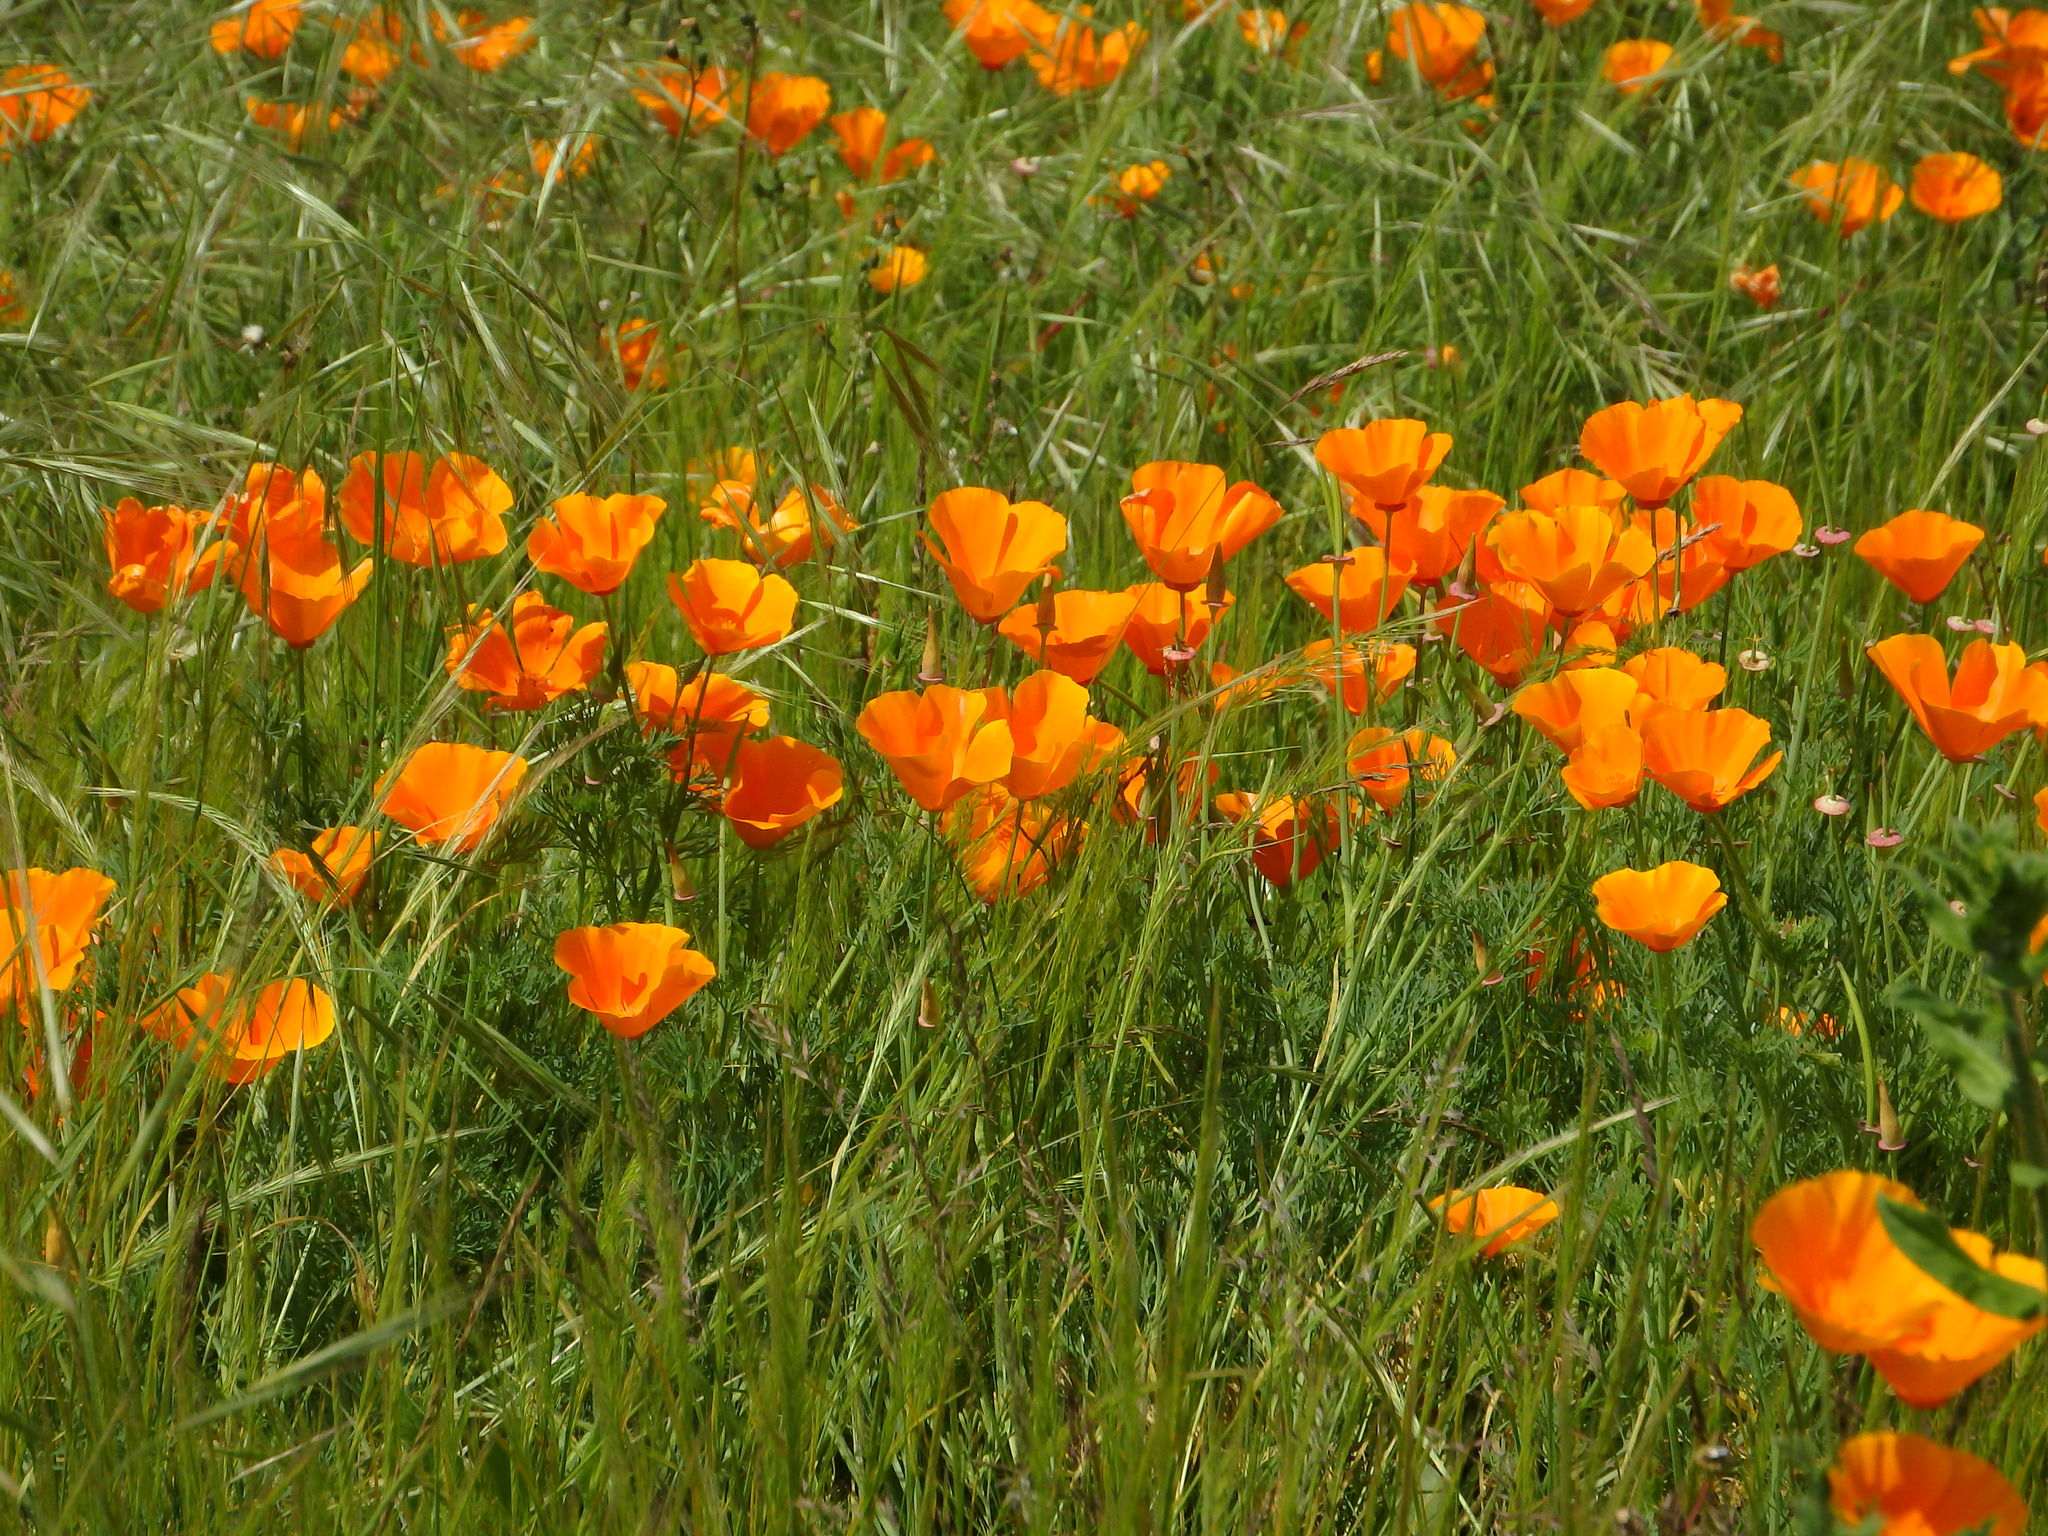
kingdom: Plantae
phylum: Tracheophyta
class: Magnoliopsida
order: Ranunculales
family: Papaveraceae
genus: Eschscholzia
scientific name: Eschscholzia californica
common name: California poppy
